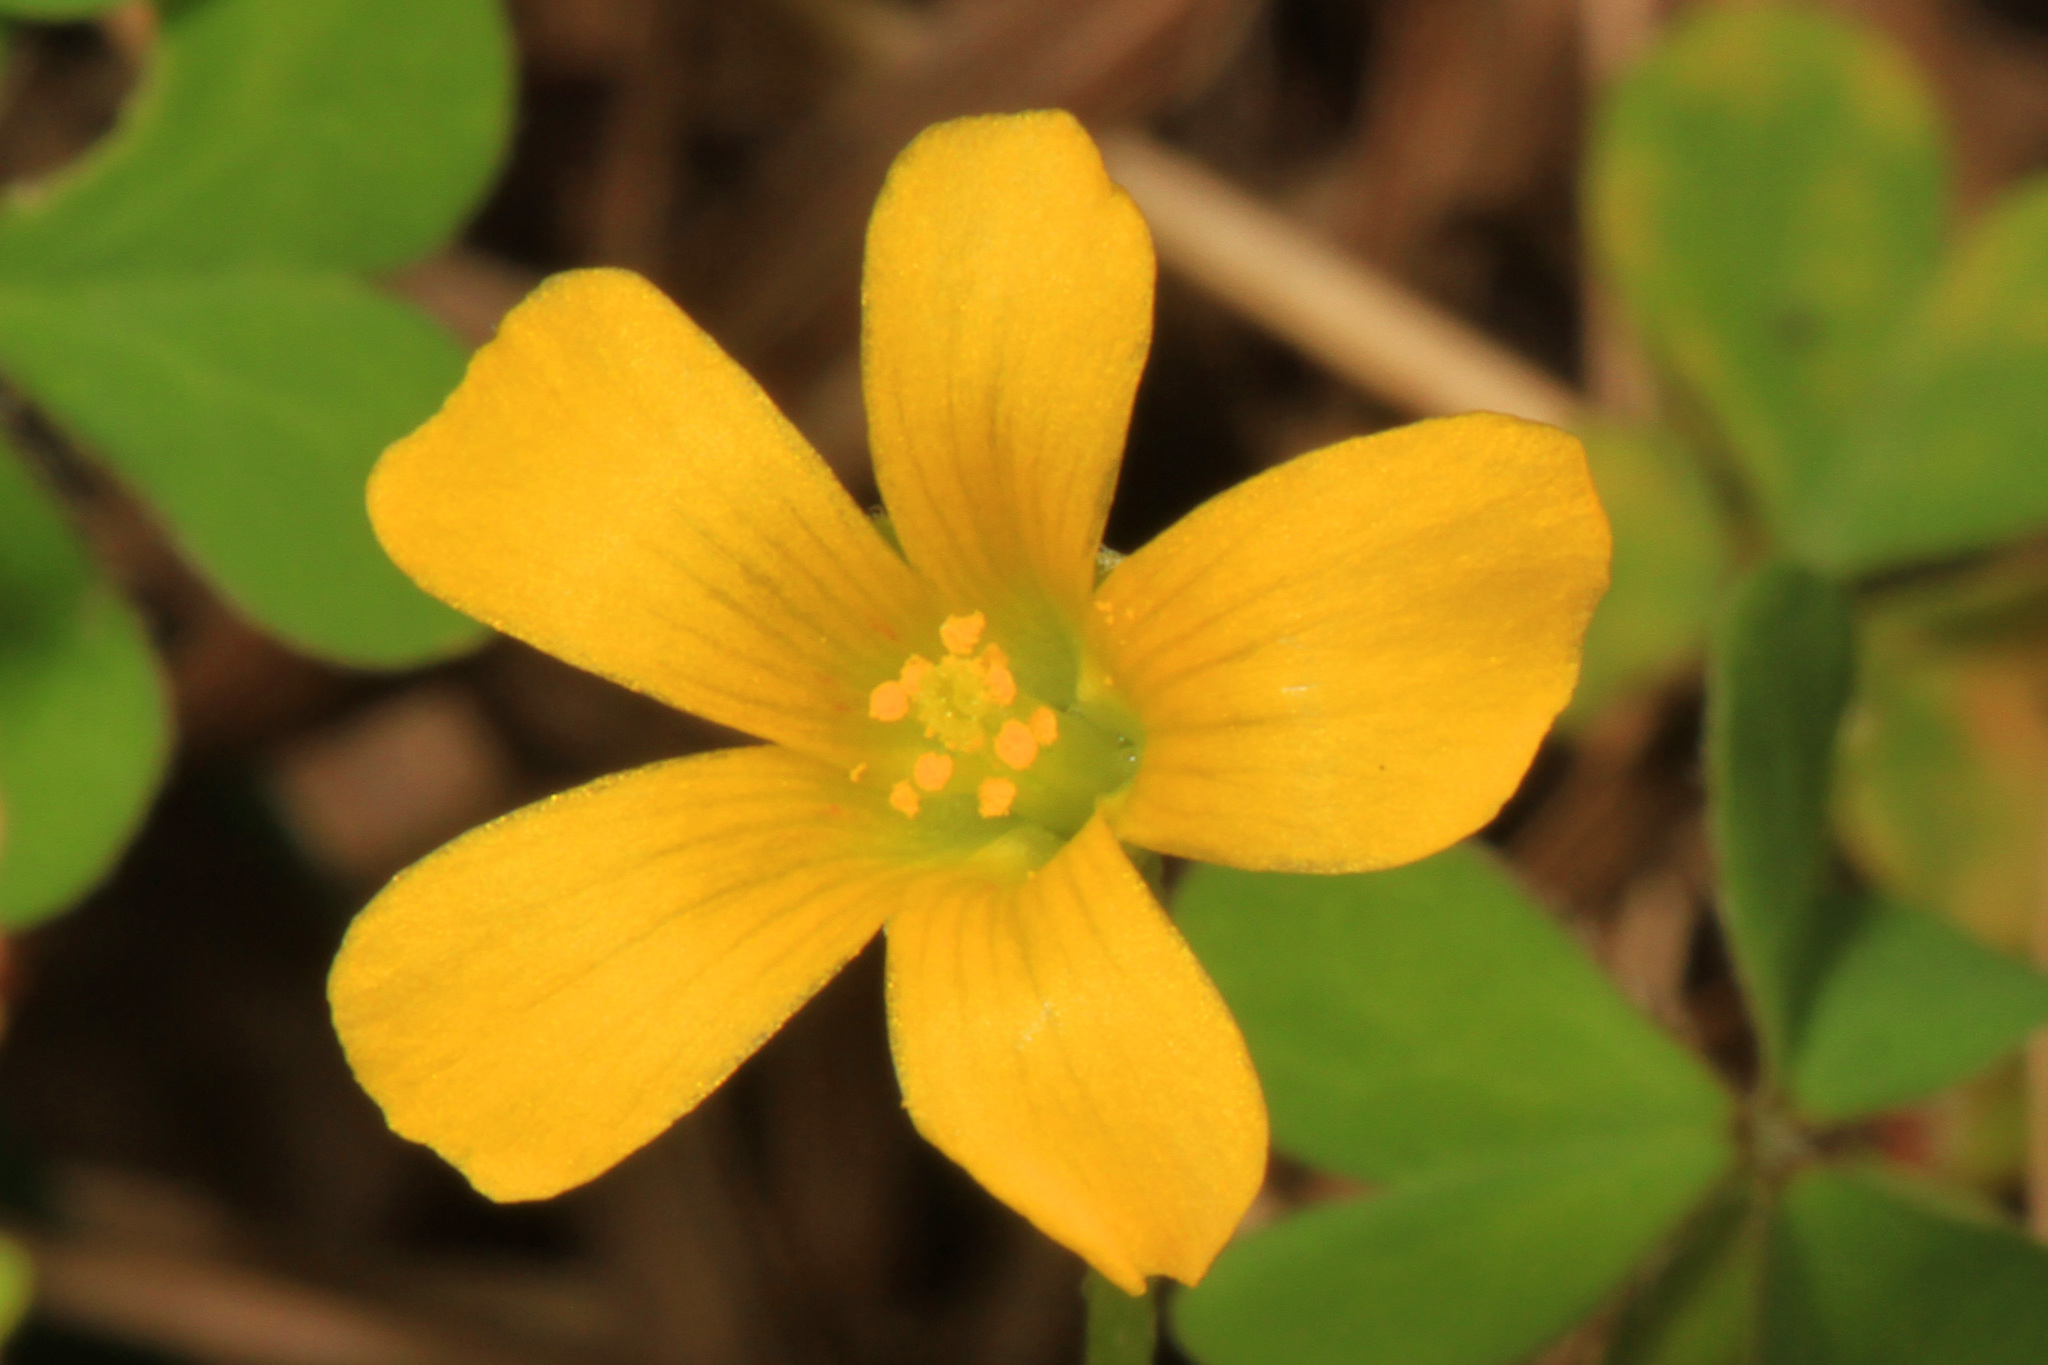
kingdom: Plantae
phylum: Tracheophyta
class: Magnoliopsida
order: Oxalidales
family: Oxalidaceae
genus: Oxalis
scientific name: Oxalis
